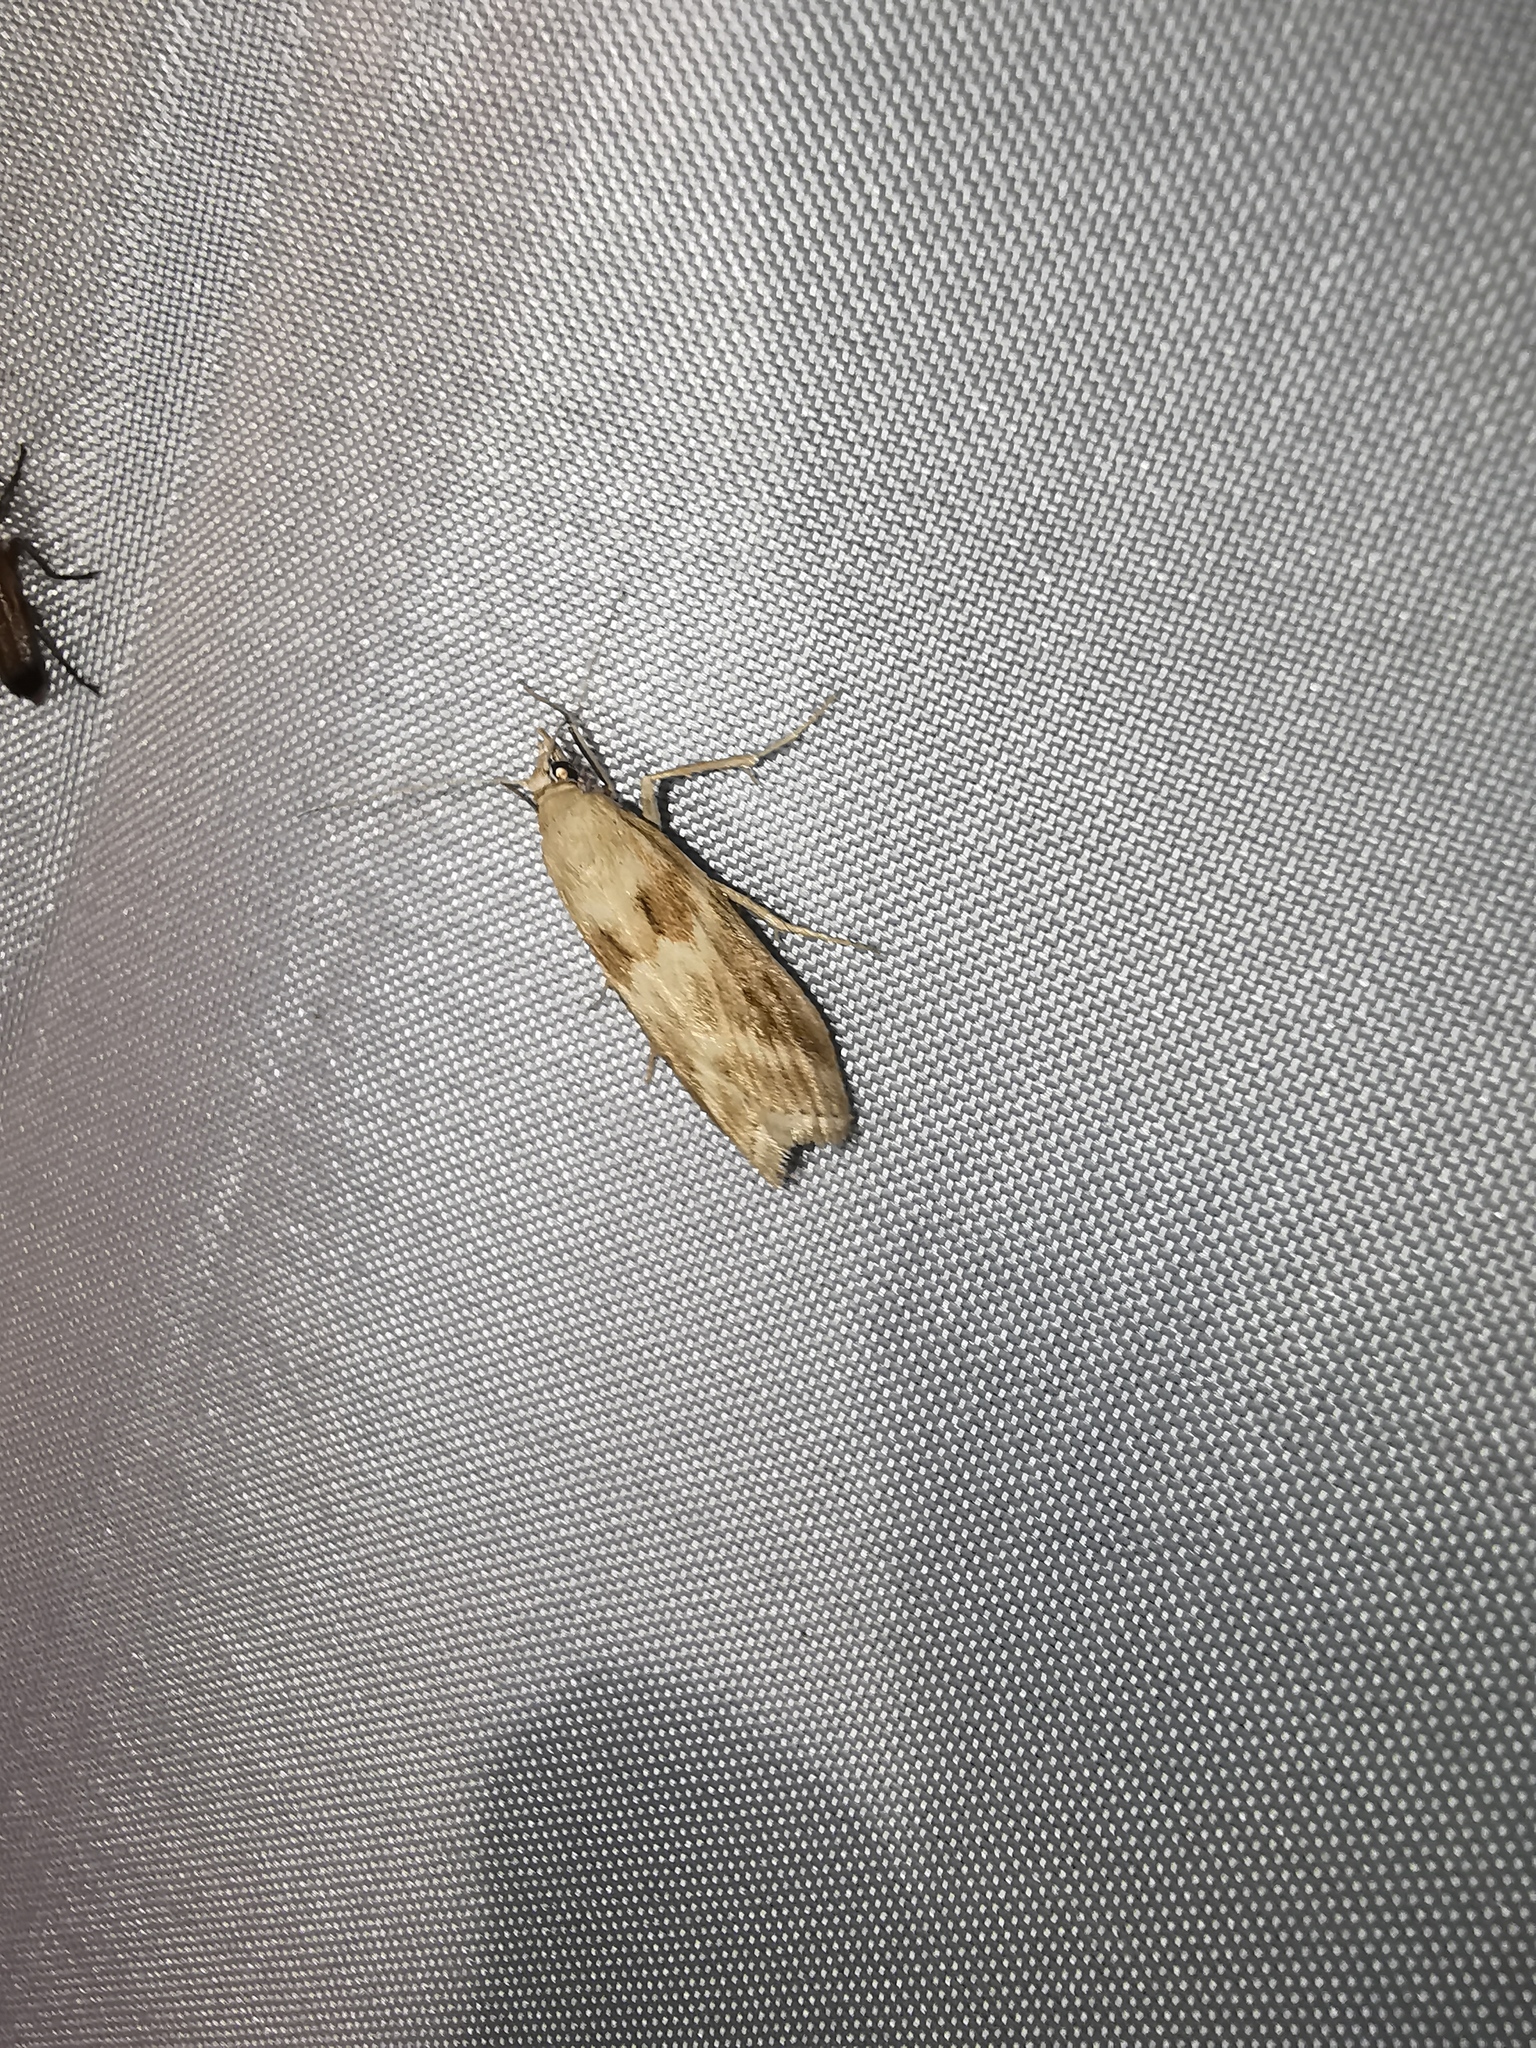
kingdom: Animalia
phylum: Arthropoda
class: Insecta
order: Lepidoptera
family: Pyralidae
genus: Bradyrrhoa
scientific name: Bradyrrhoa gilveolella
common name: Pyralid moth
